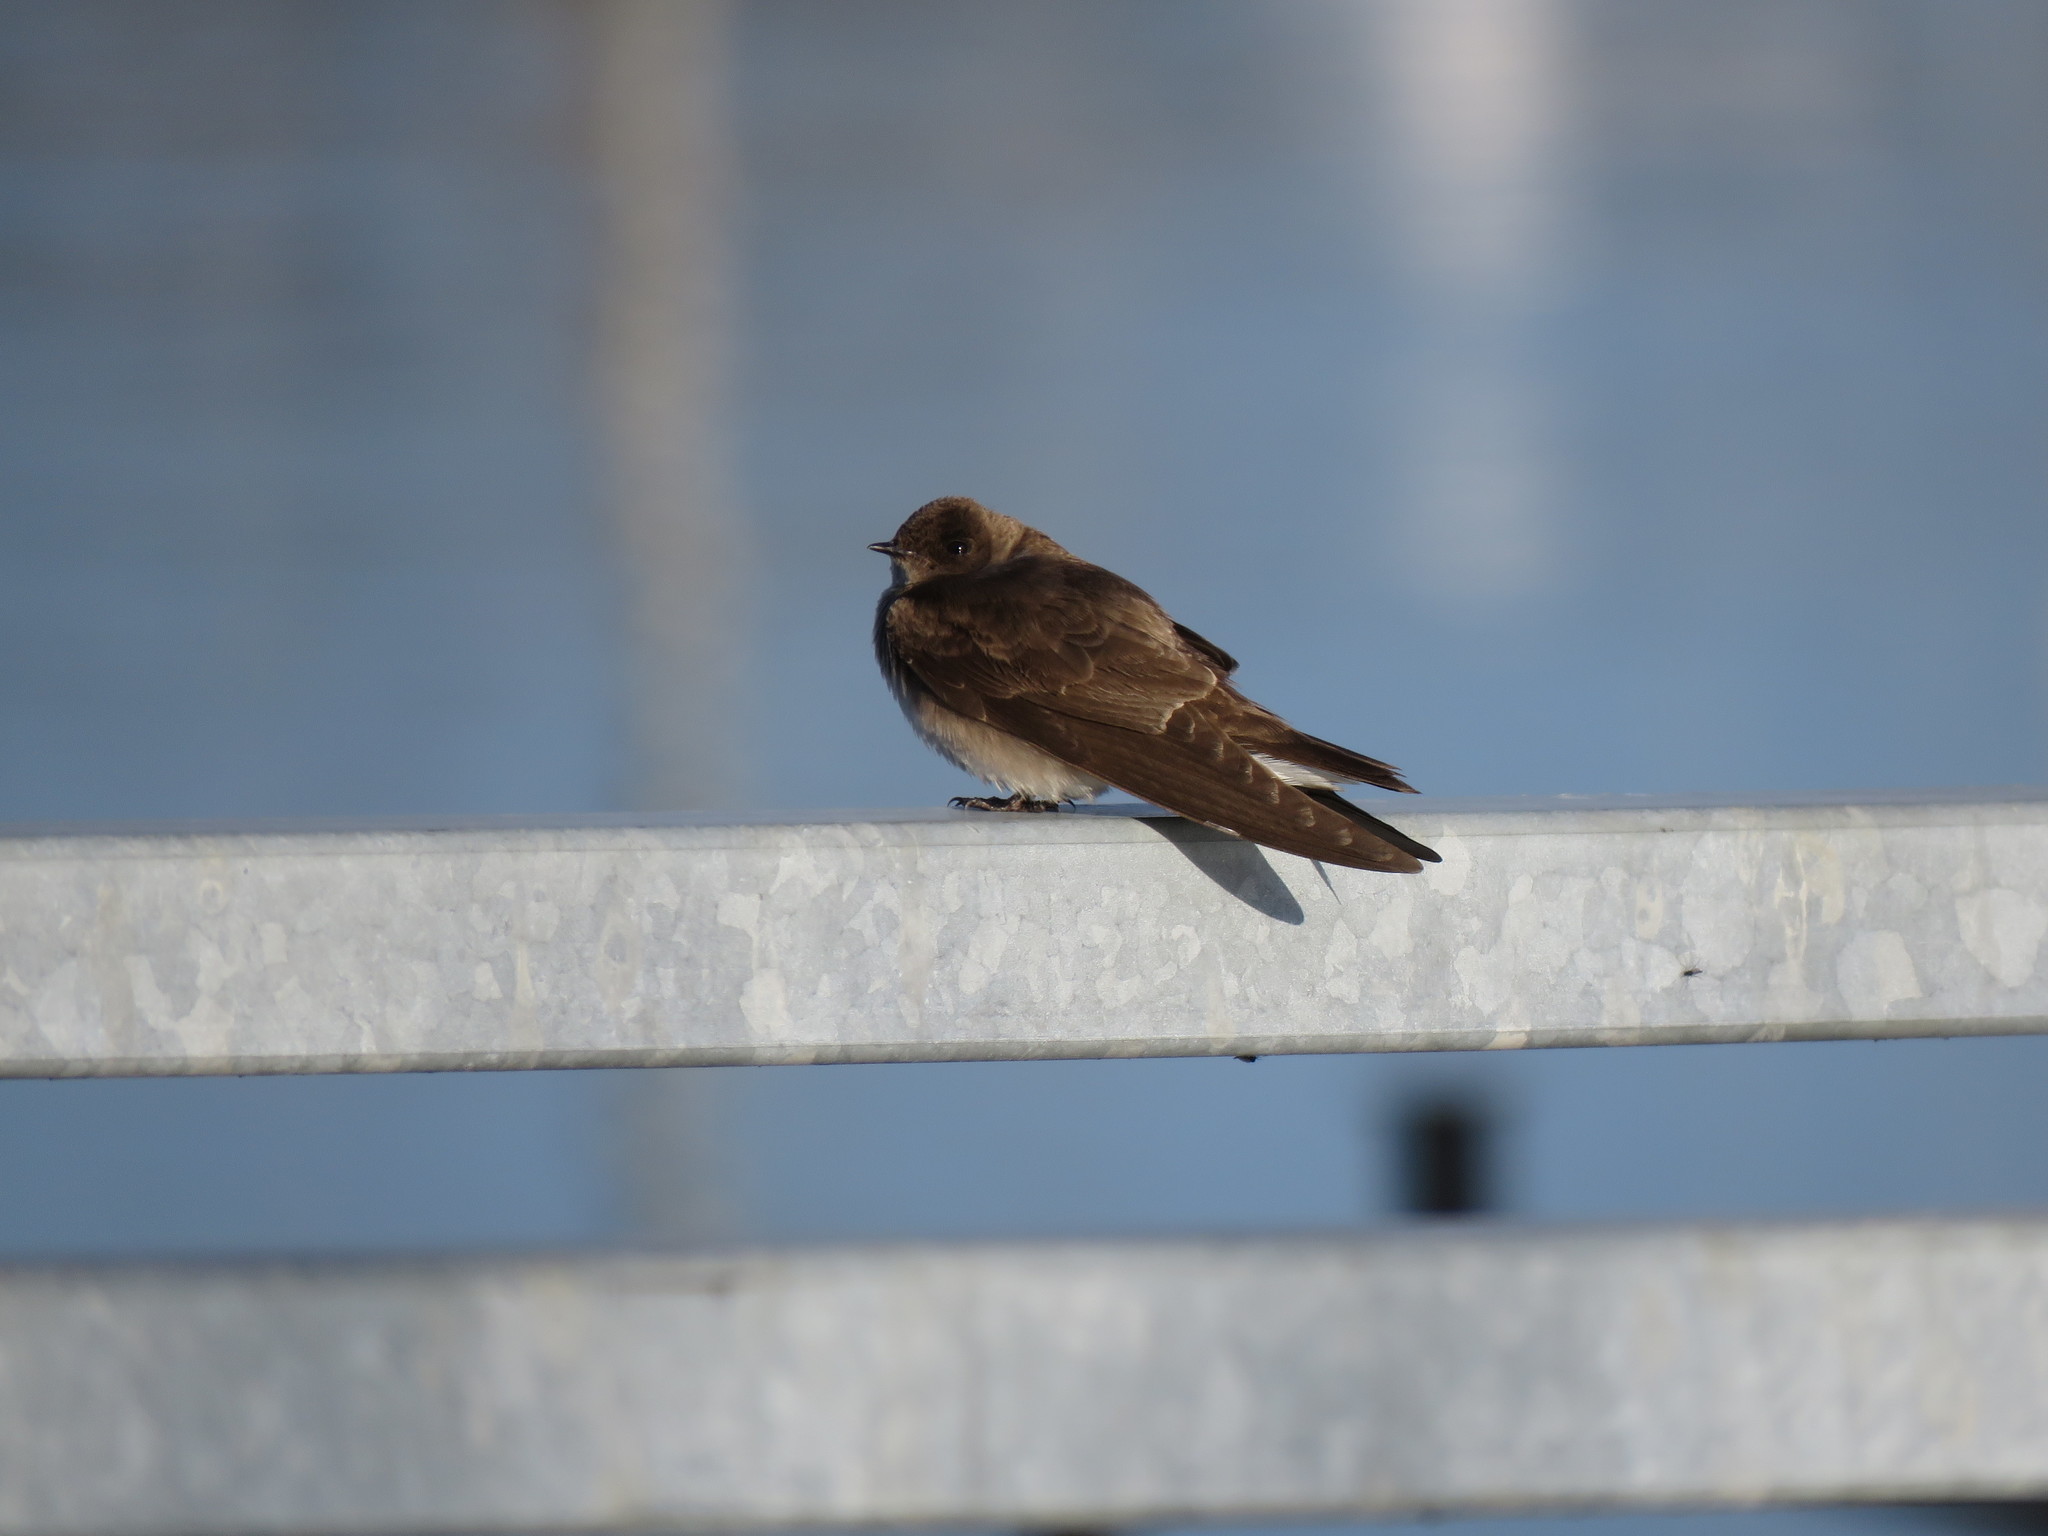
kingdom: Animalia
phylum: Chordata
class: Aves
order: Passeriformes
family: Hirundinidae
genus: Stelgidopteryx
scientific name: Stelgidopteryx serripennis
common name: Northern rough-winged swallow
